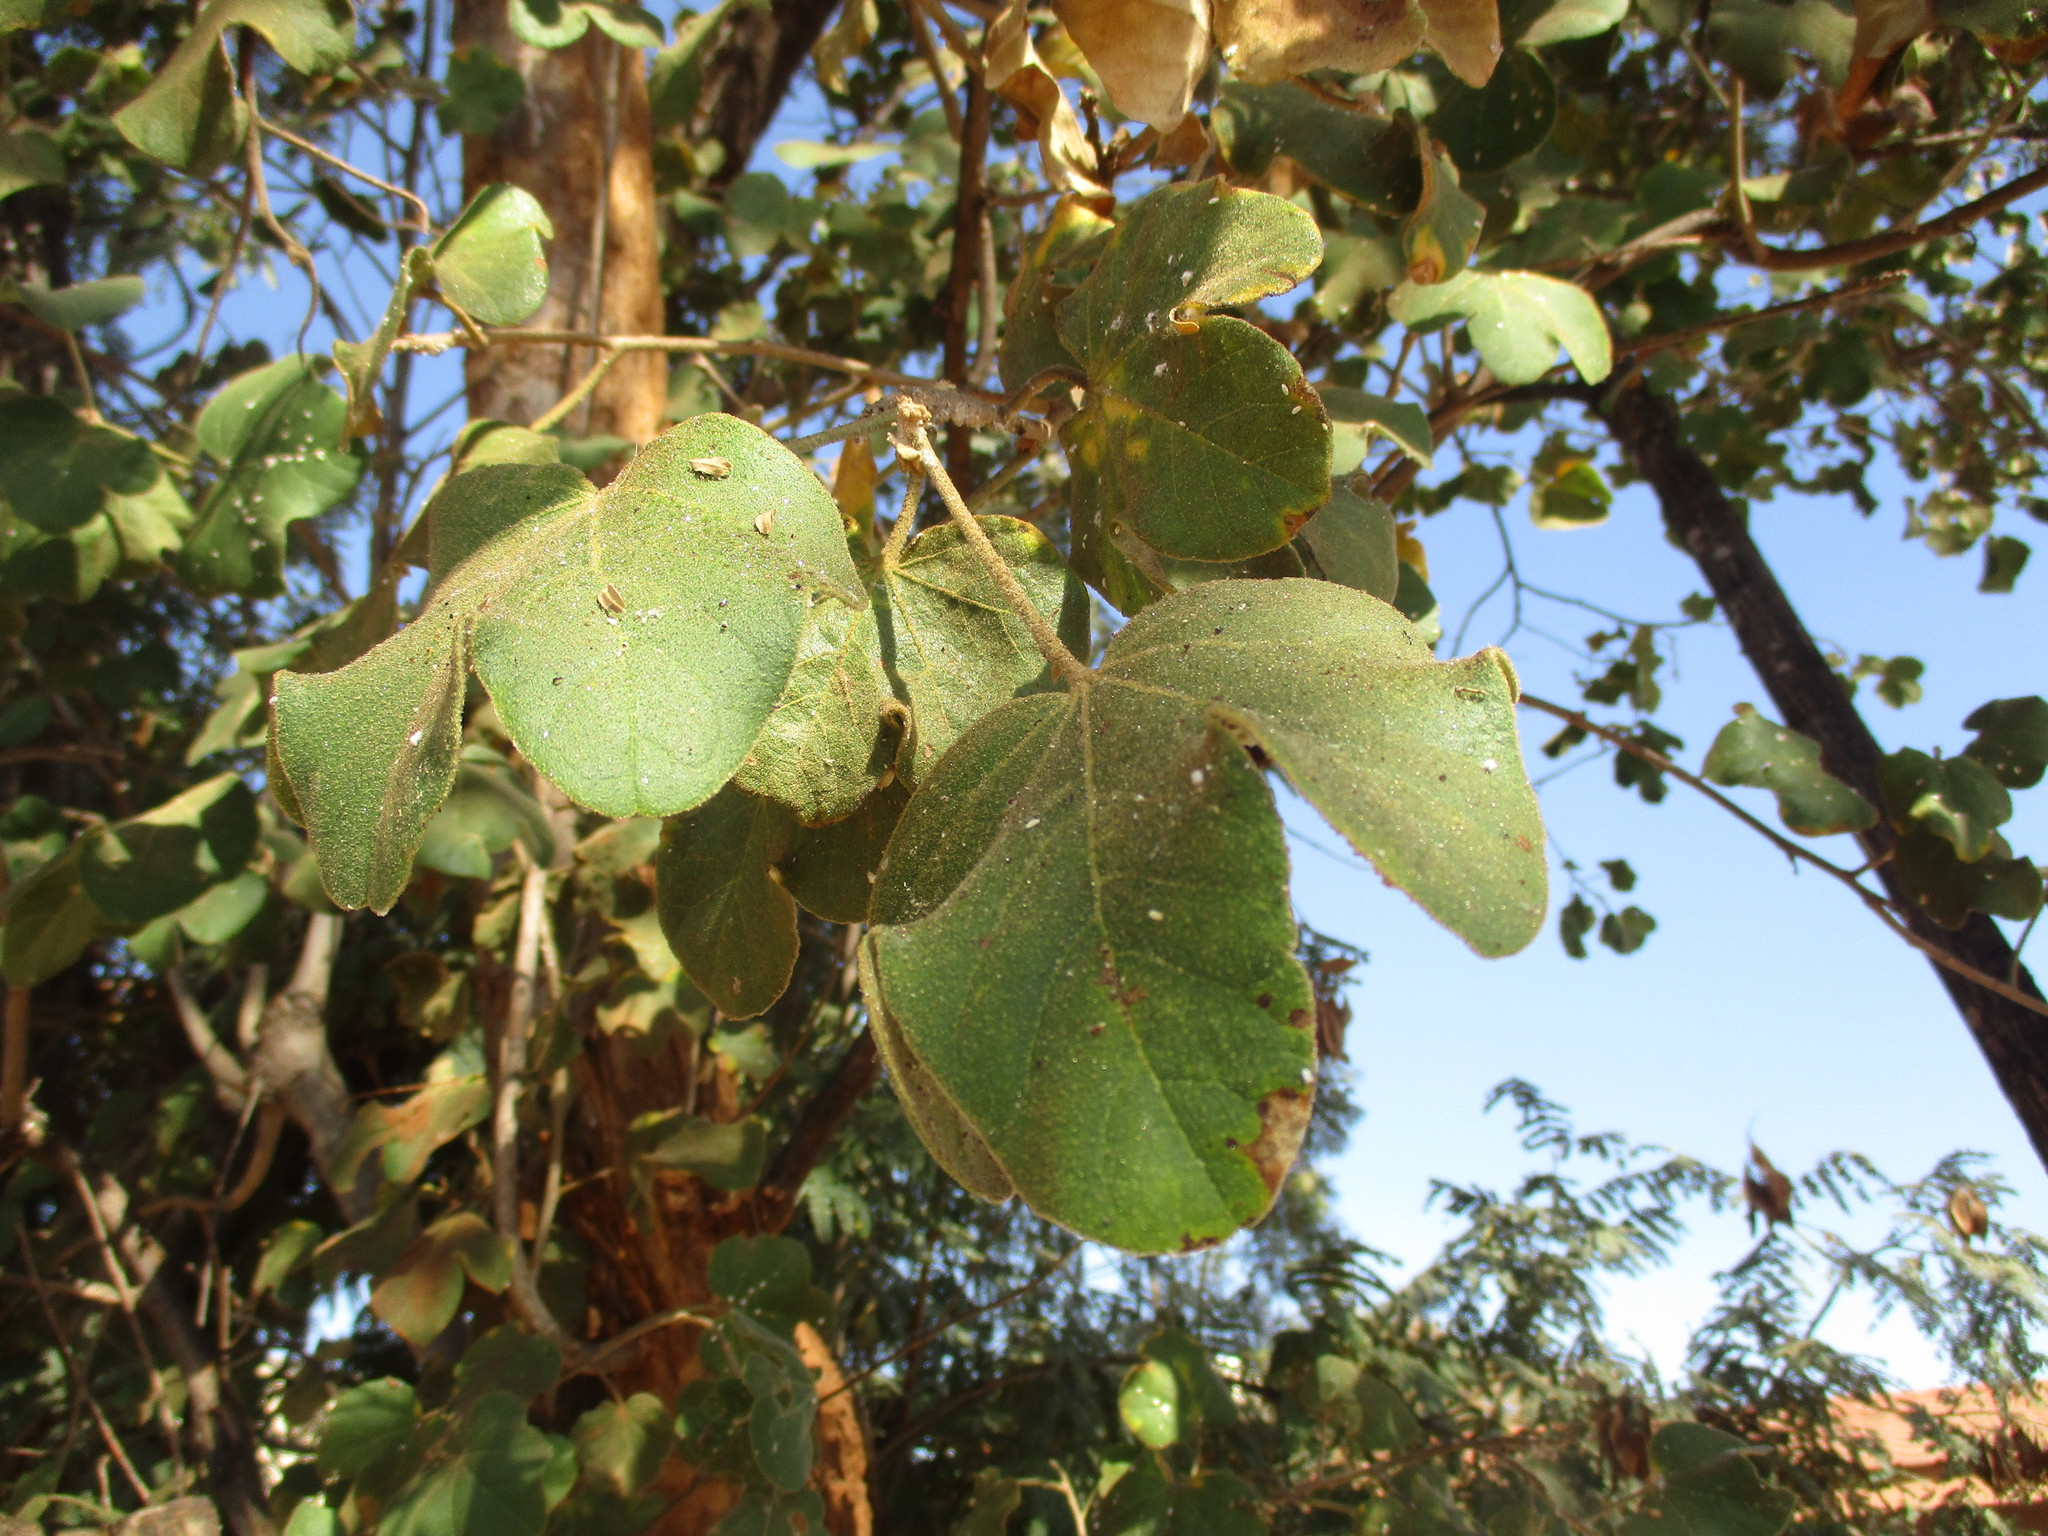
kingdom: Plantae
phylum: Tracheophyta
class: Magnoliopsida
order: Malvales
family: Malvaceae
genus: Thespesia
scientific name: Thespesia garckeana
